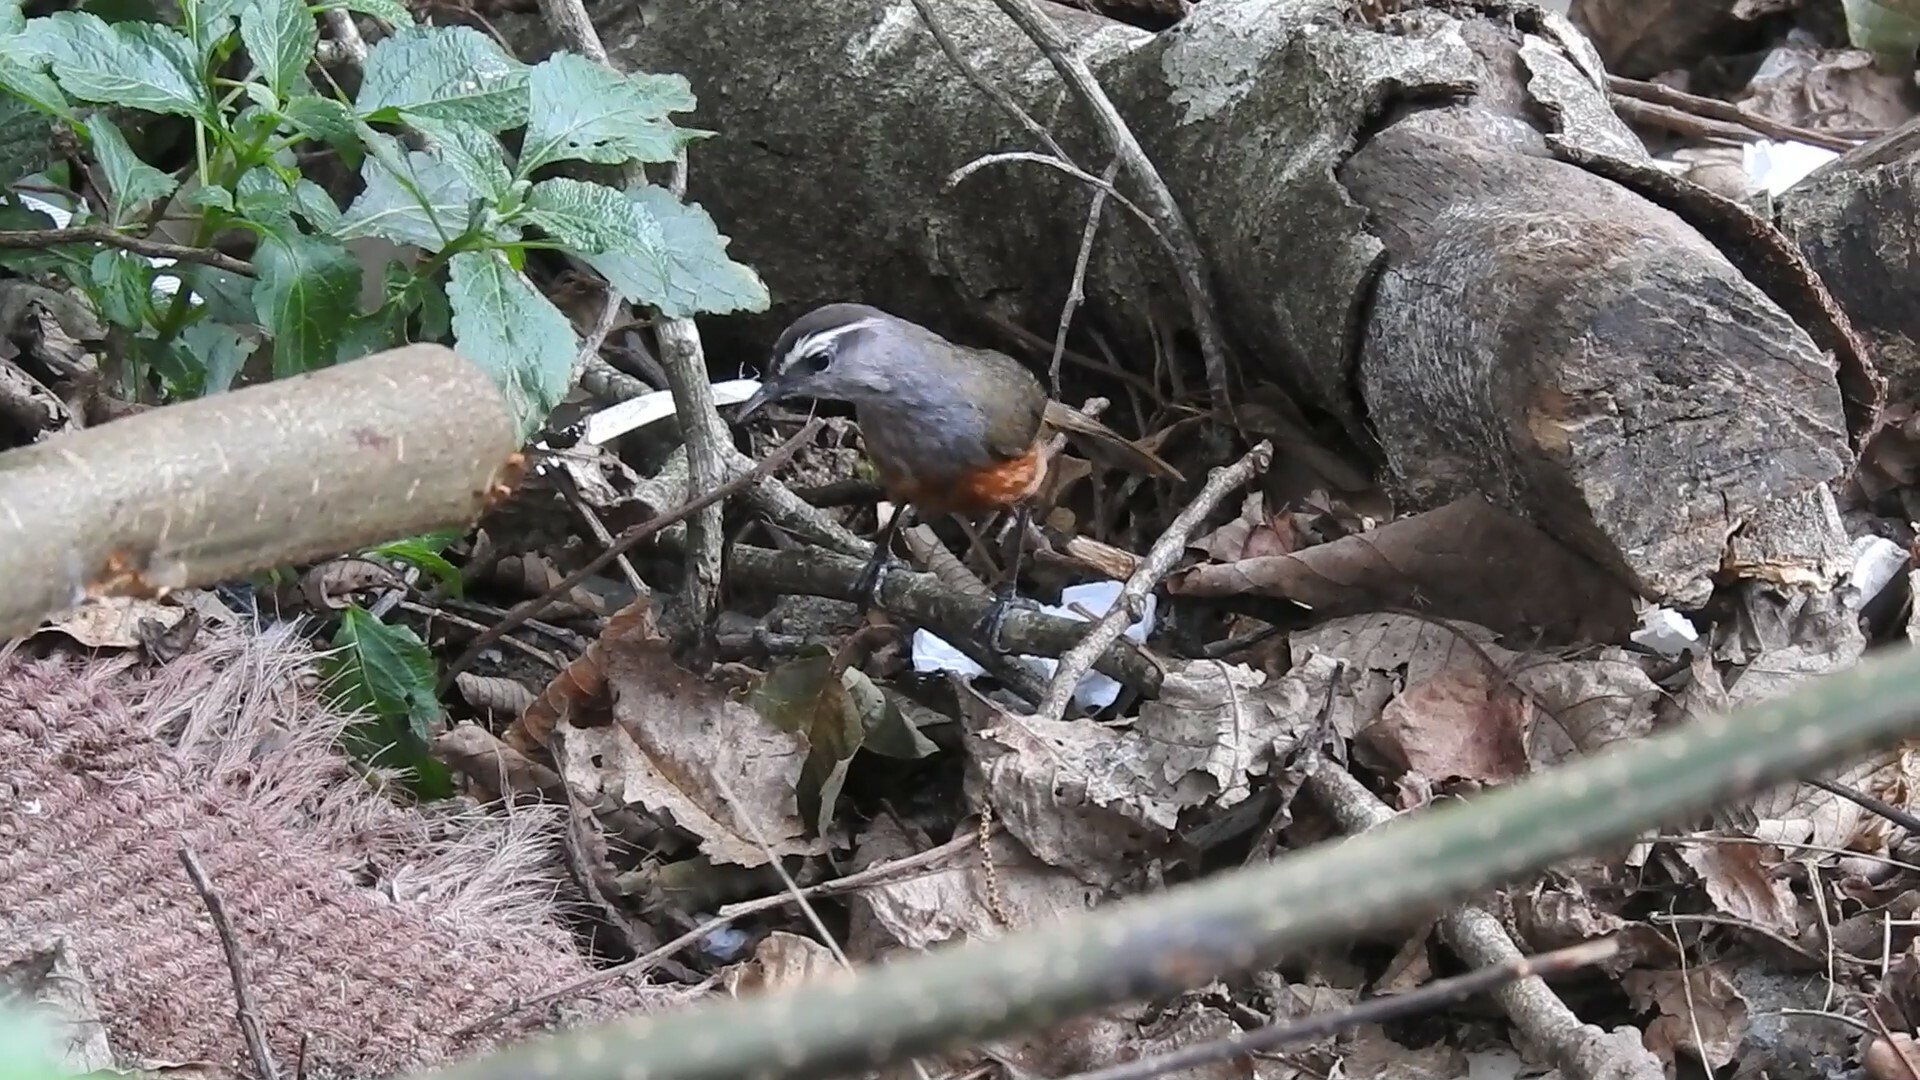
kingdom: Animalia
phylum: Chordata
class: Aves
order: Passeriformes
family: Leiothrichidae
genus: Trochalopteron
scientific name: Trochalopteron fairbanki
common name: Kerala laughingthrush
